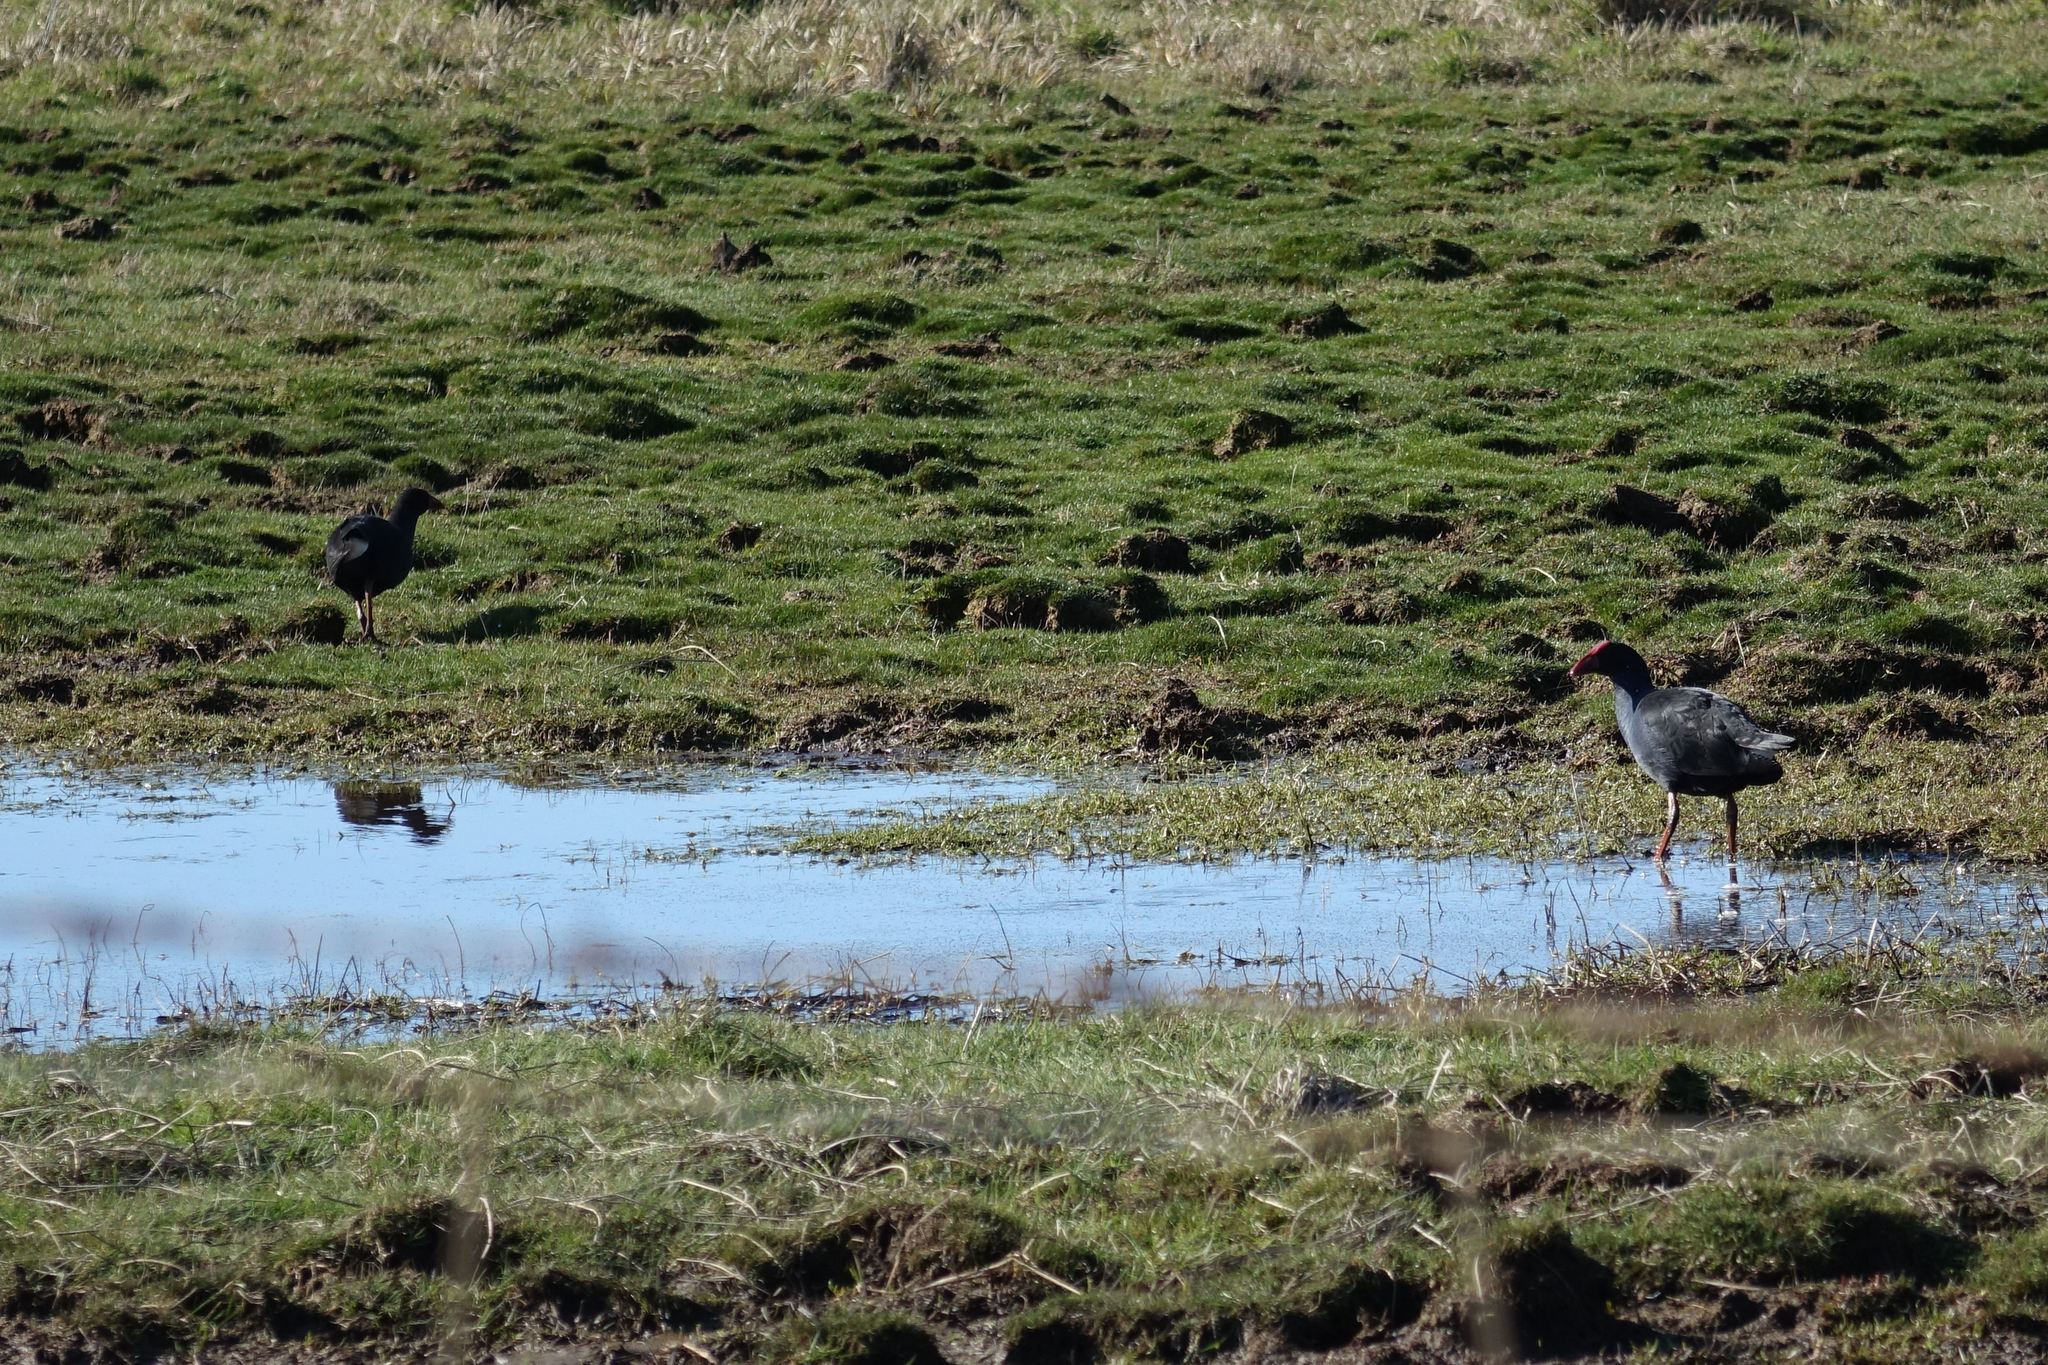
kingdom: Animalia
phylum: Chordata
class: Aves
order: Gruiformes
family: Rallidae
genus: Porphyrio
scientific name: Porphyrio melanotus
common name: Australasian swamphen
